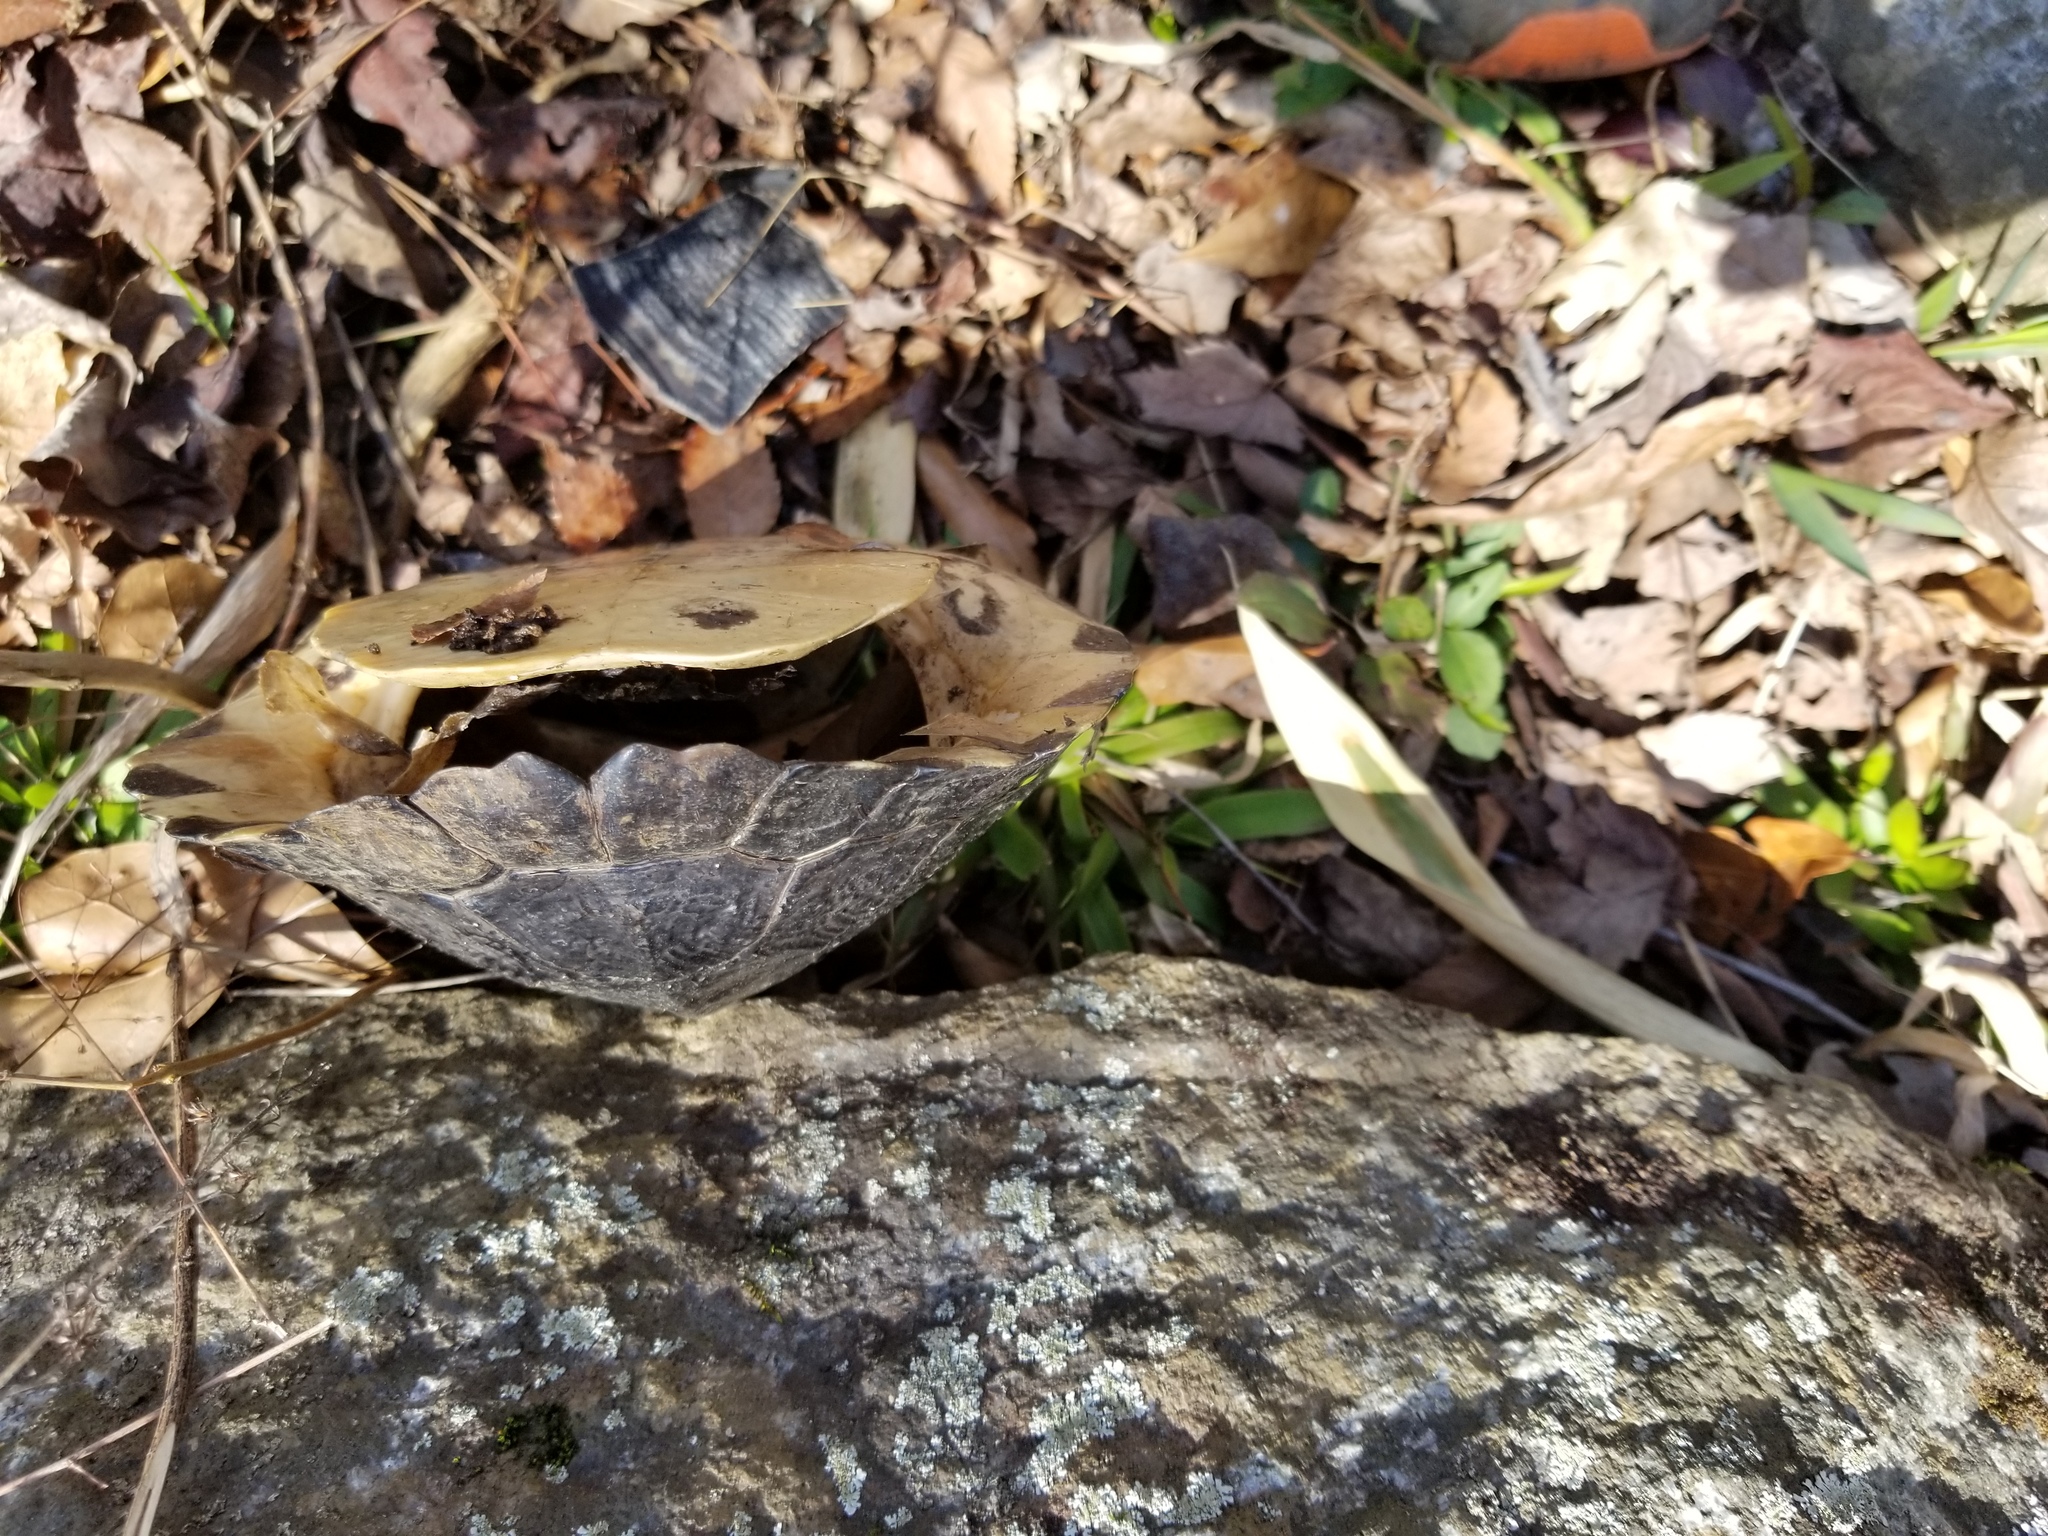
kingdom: Animalia
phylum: Chordata
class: Testudines
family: Emydidae
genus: Trachemys
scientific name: Trachemys scripta
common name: Slider
